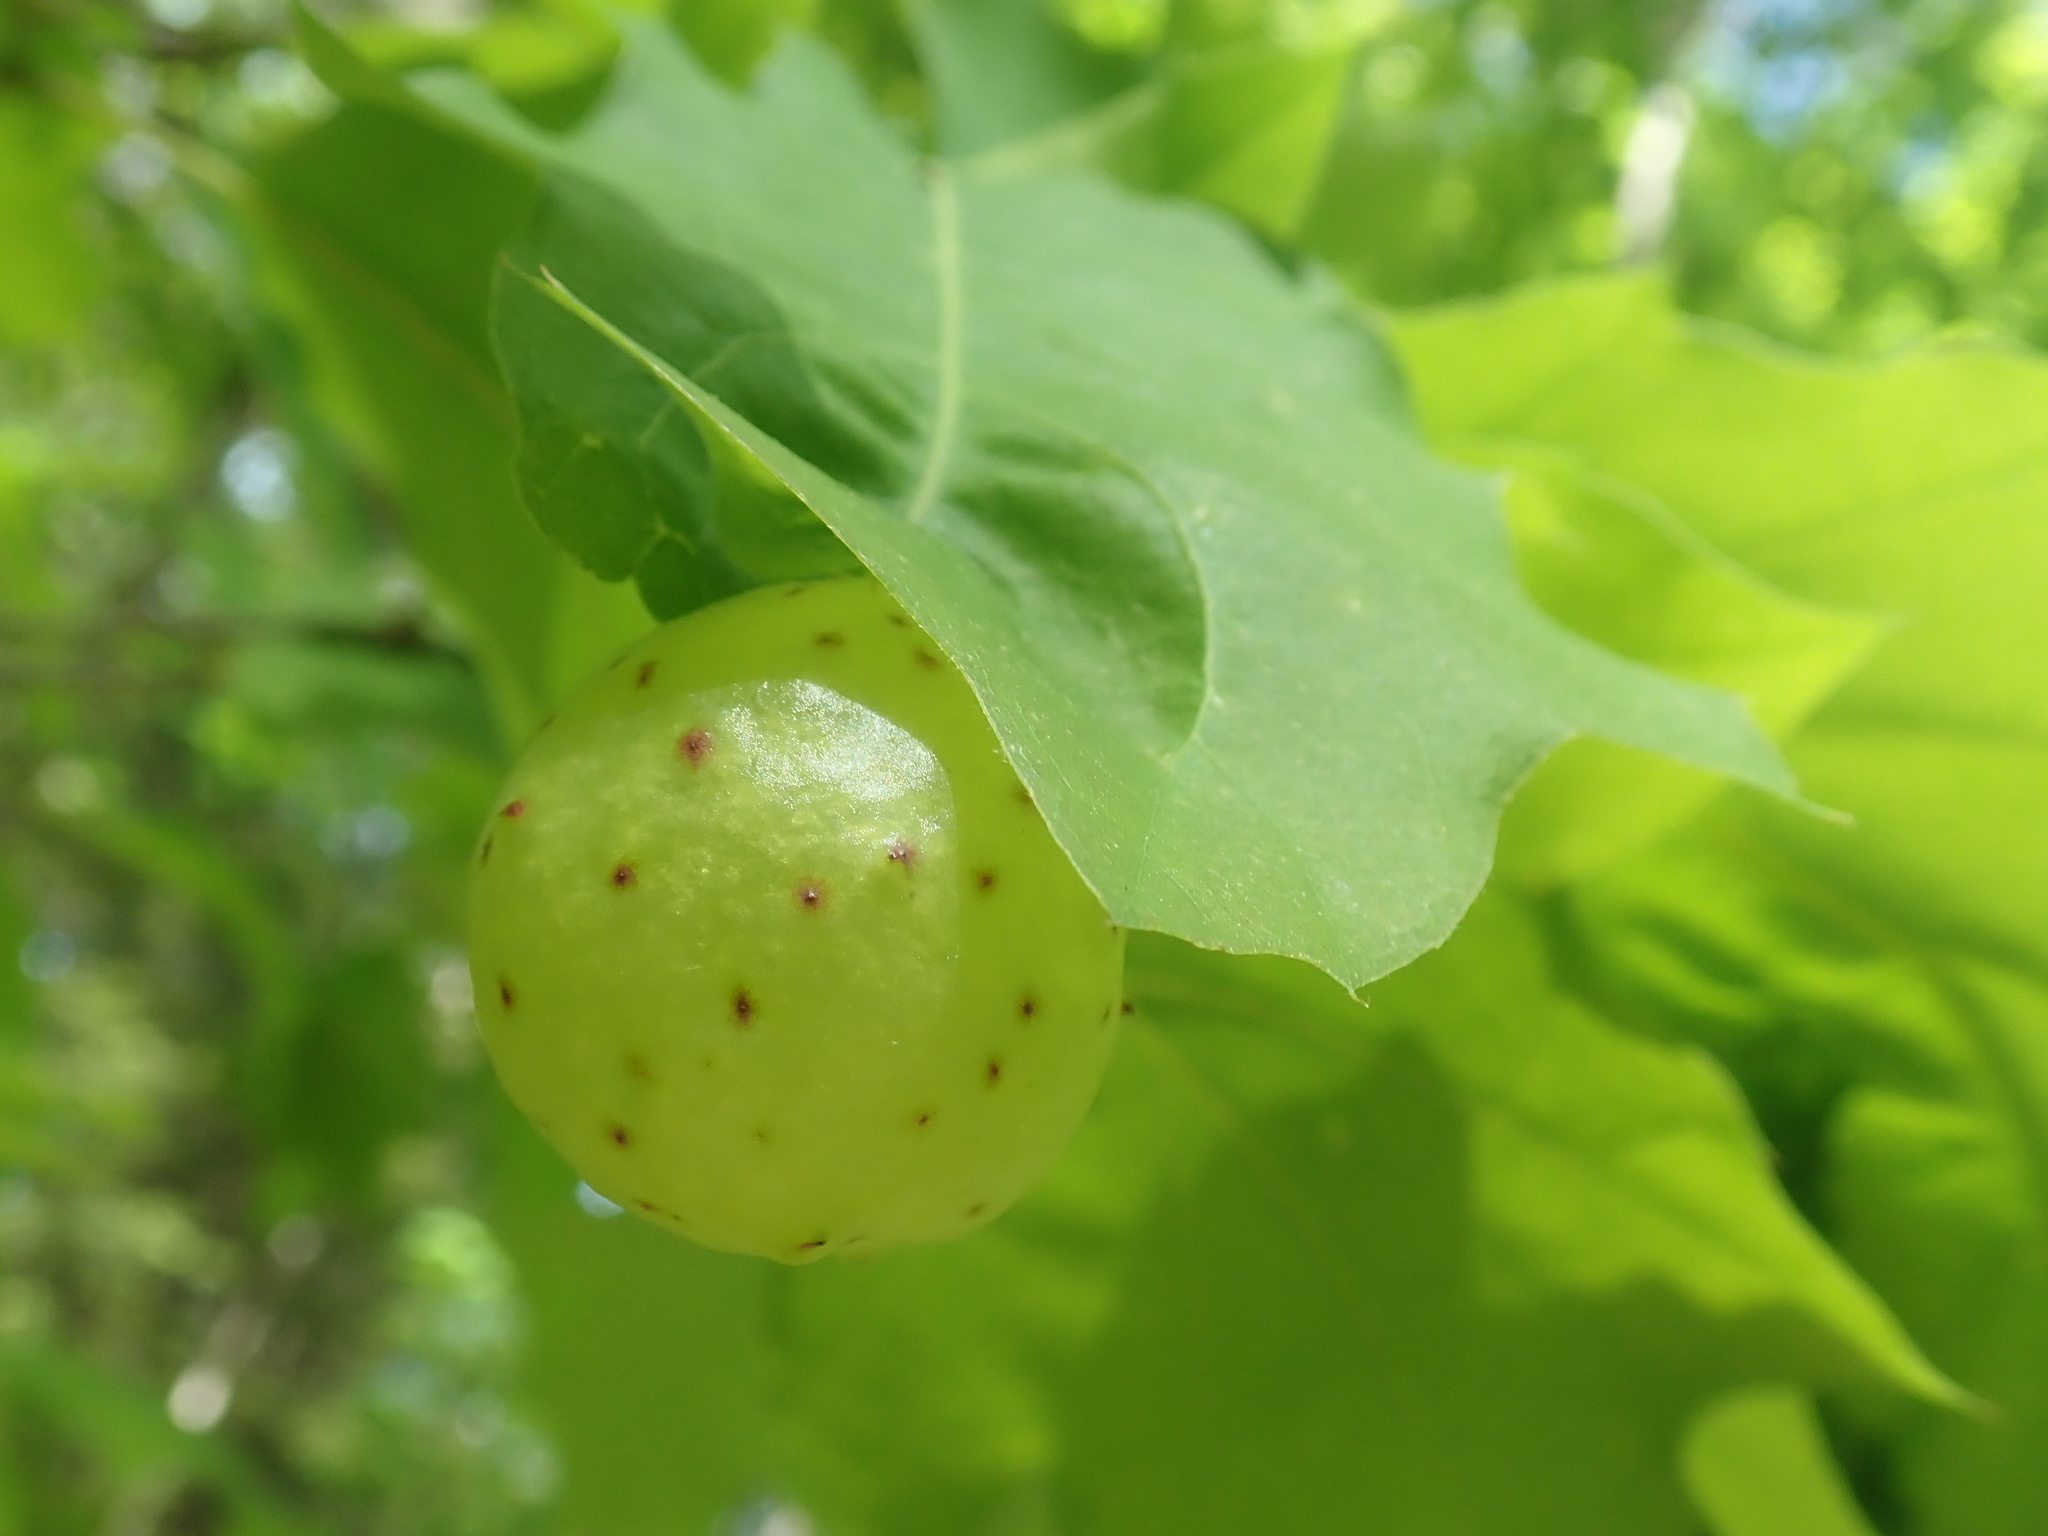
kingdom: Animalia
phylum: Arthropoda
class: Insecta
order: Hymenoptera
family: Cynipidae
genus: Amphibolips
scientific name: Amphibolips
